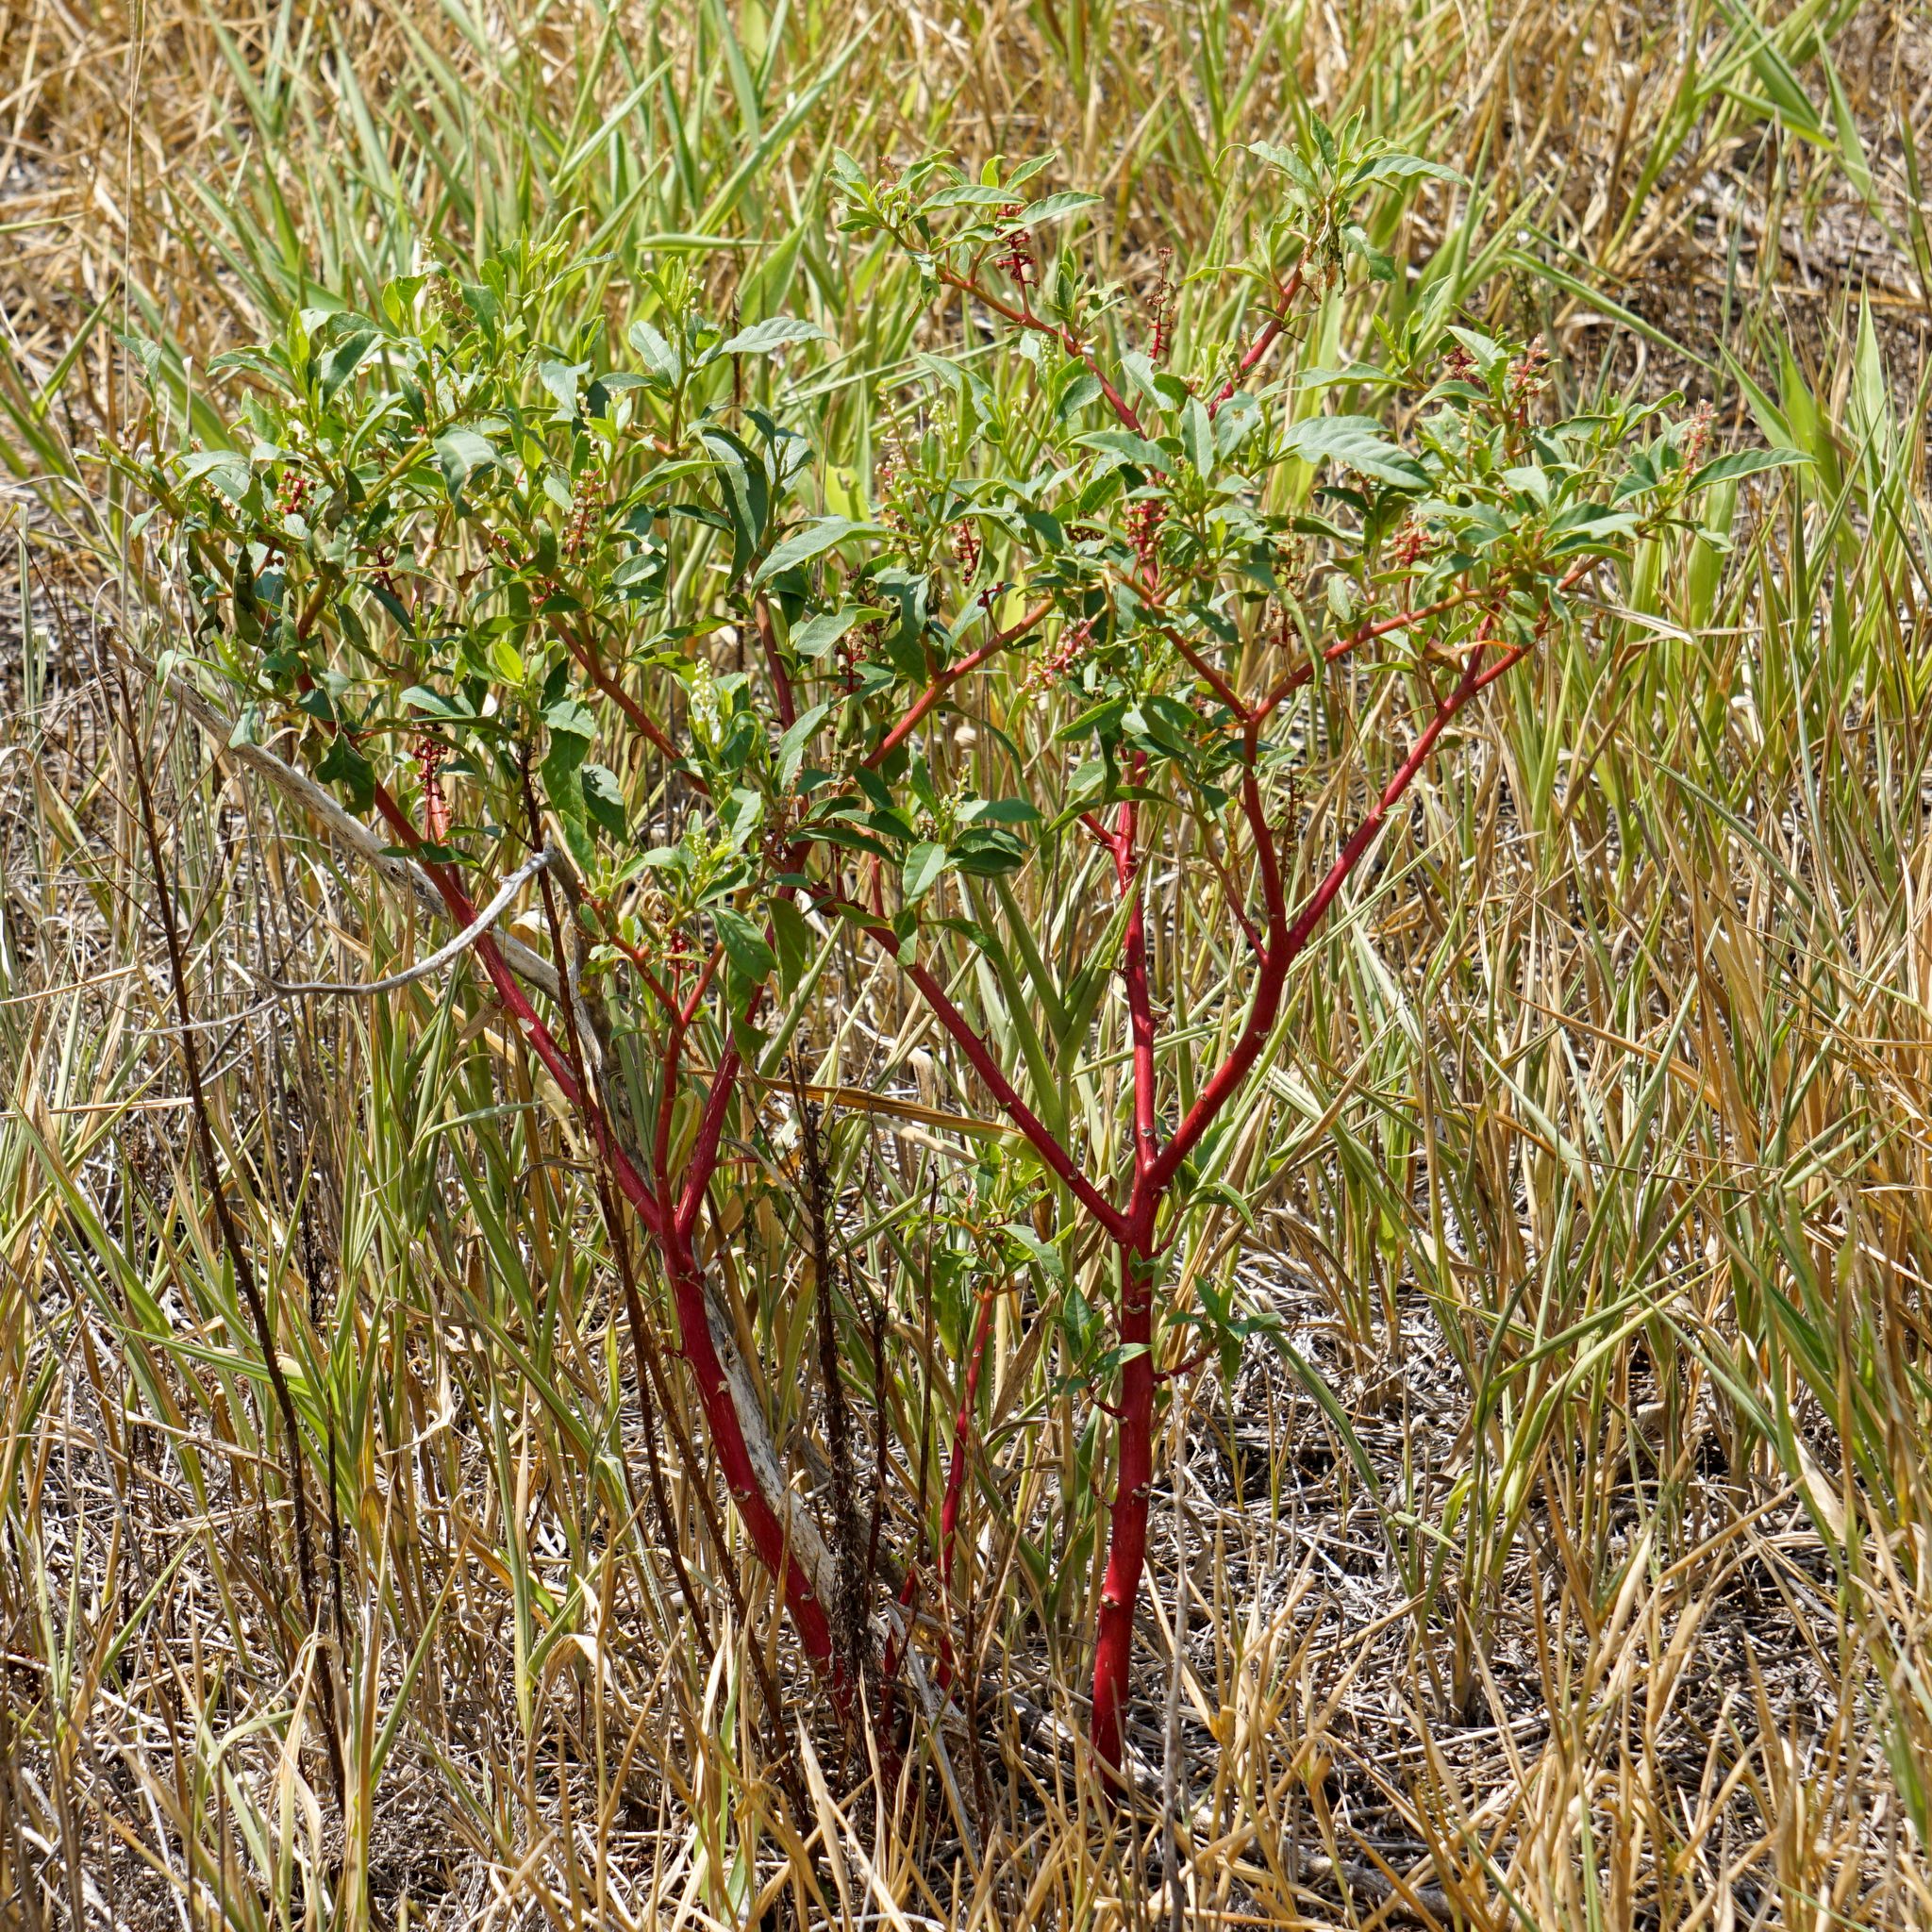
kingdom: Plantae
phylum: Tracheophyta
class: Magnoliopsida
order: Caryophyllales
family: Phytolaccaceae
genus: Phytolacca
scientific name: Phytolacca americana
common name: American pokeweed
